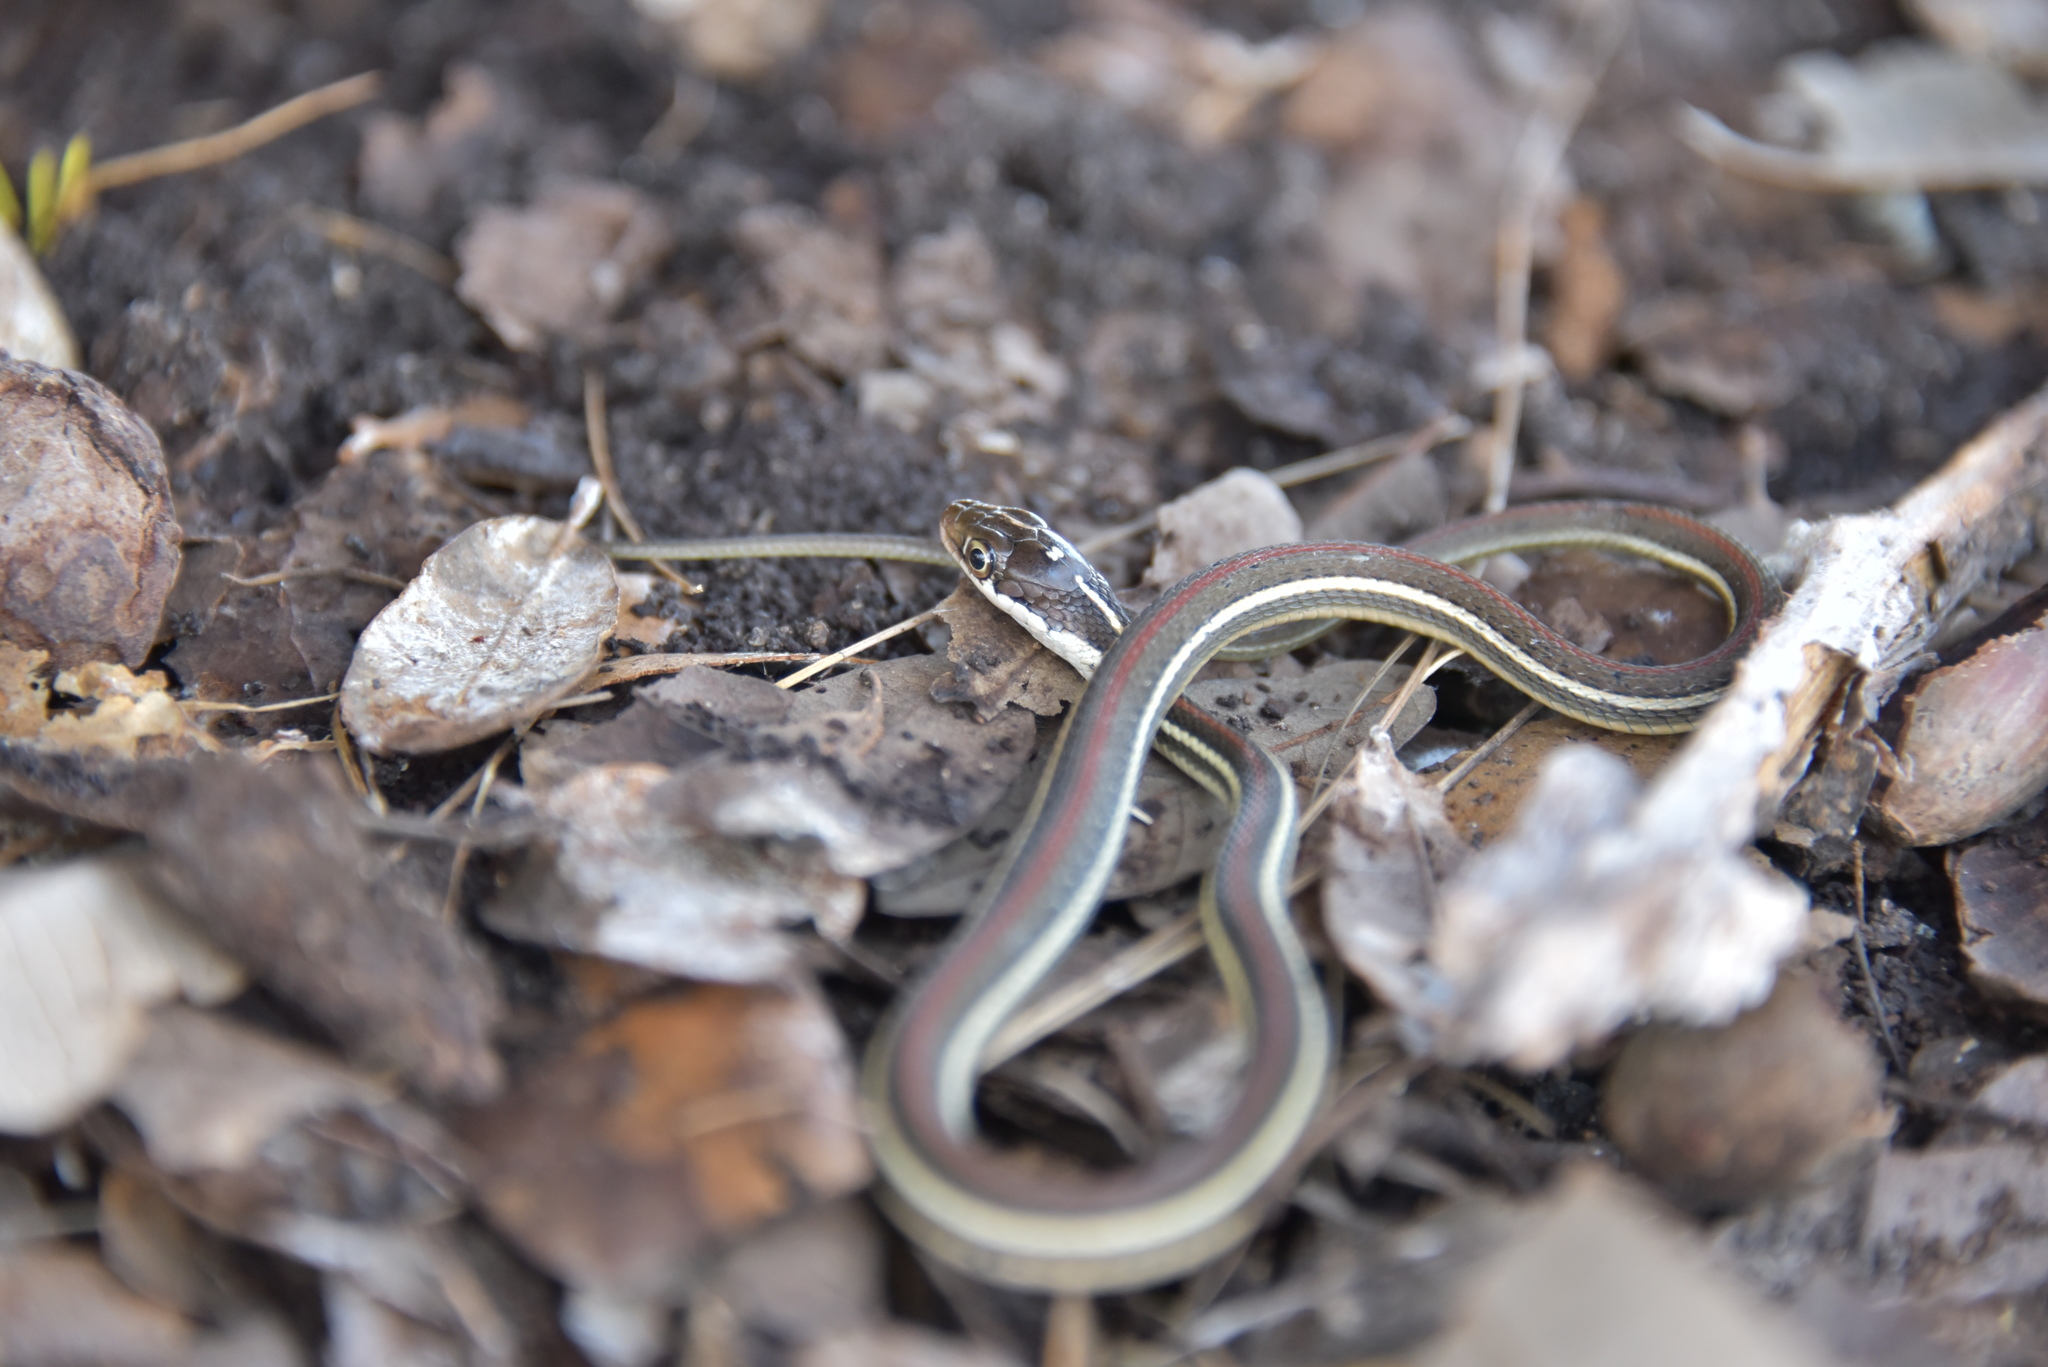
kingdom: Animalia
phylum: Chordata
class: Squamata
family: Colubridae
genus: Thamnophis
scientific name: Thamnophis proximus
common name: Western ribbon snake
